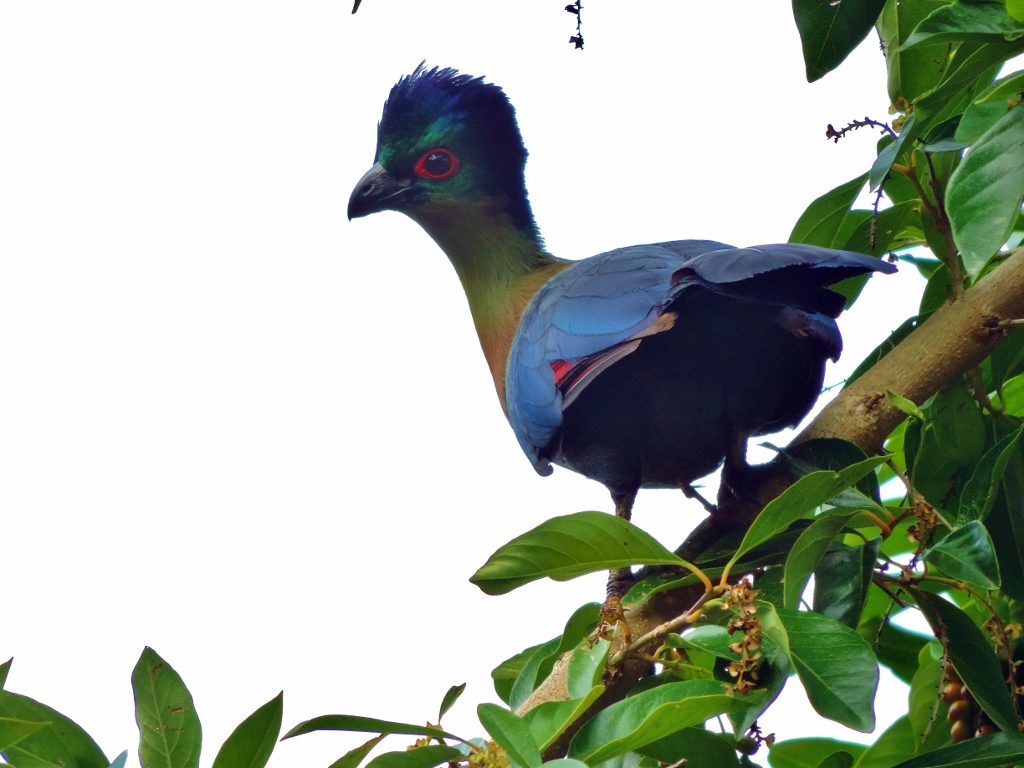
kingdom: Animalia
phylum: Chordata
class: Aves
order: Musophagiformes
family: Musophagidae
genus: Tauraco
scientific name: Tauraco porphyreolophus
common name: Purple-crested turaco
